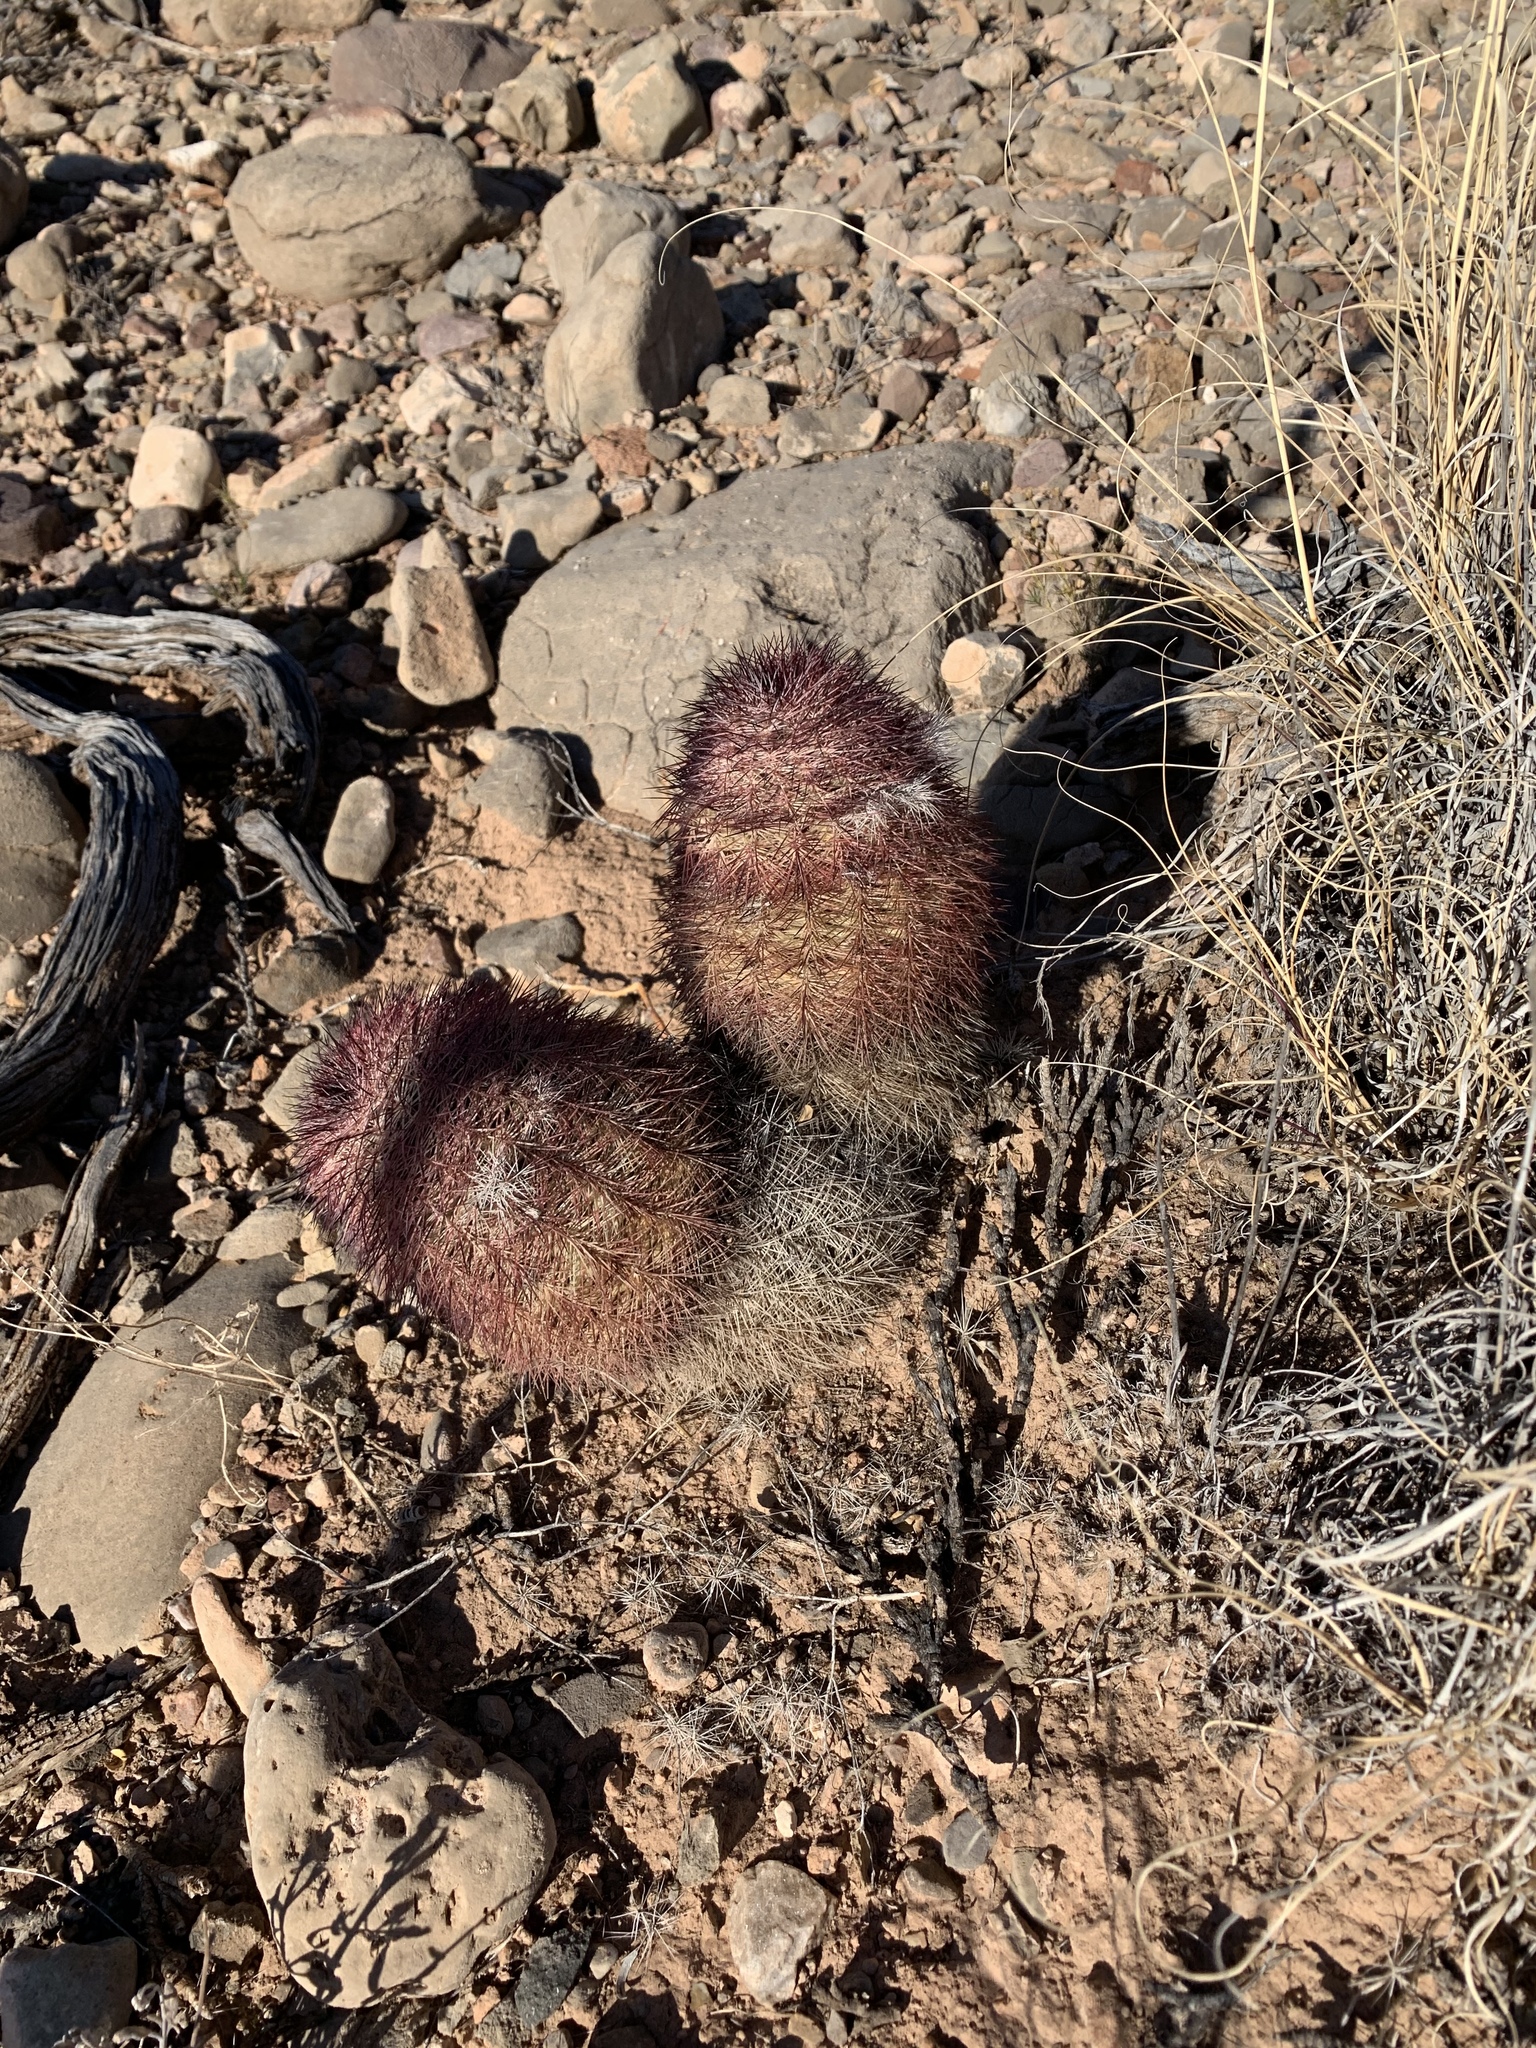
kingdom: Plantae
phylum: Tracheophyta
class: Magnoliopsida
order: Caryophyllales
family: Cactaceae
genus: Echinocereus
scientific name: Echinocereus dasyacanthus
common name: Spiny hedgehog cactus
